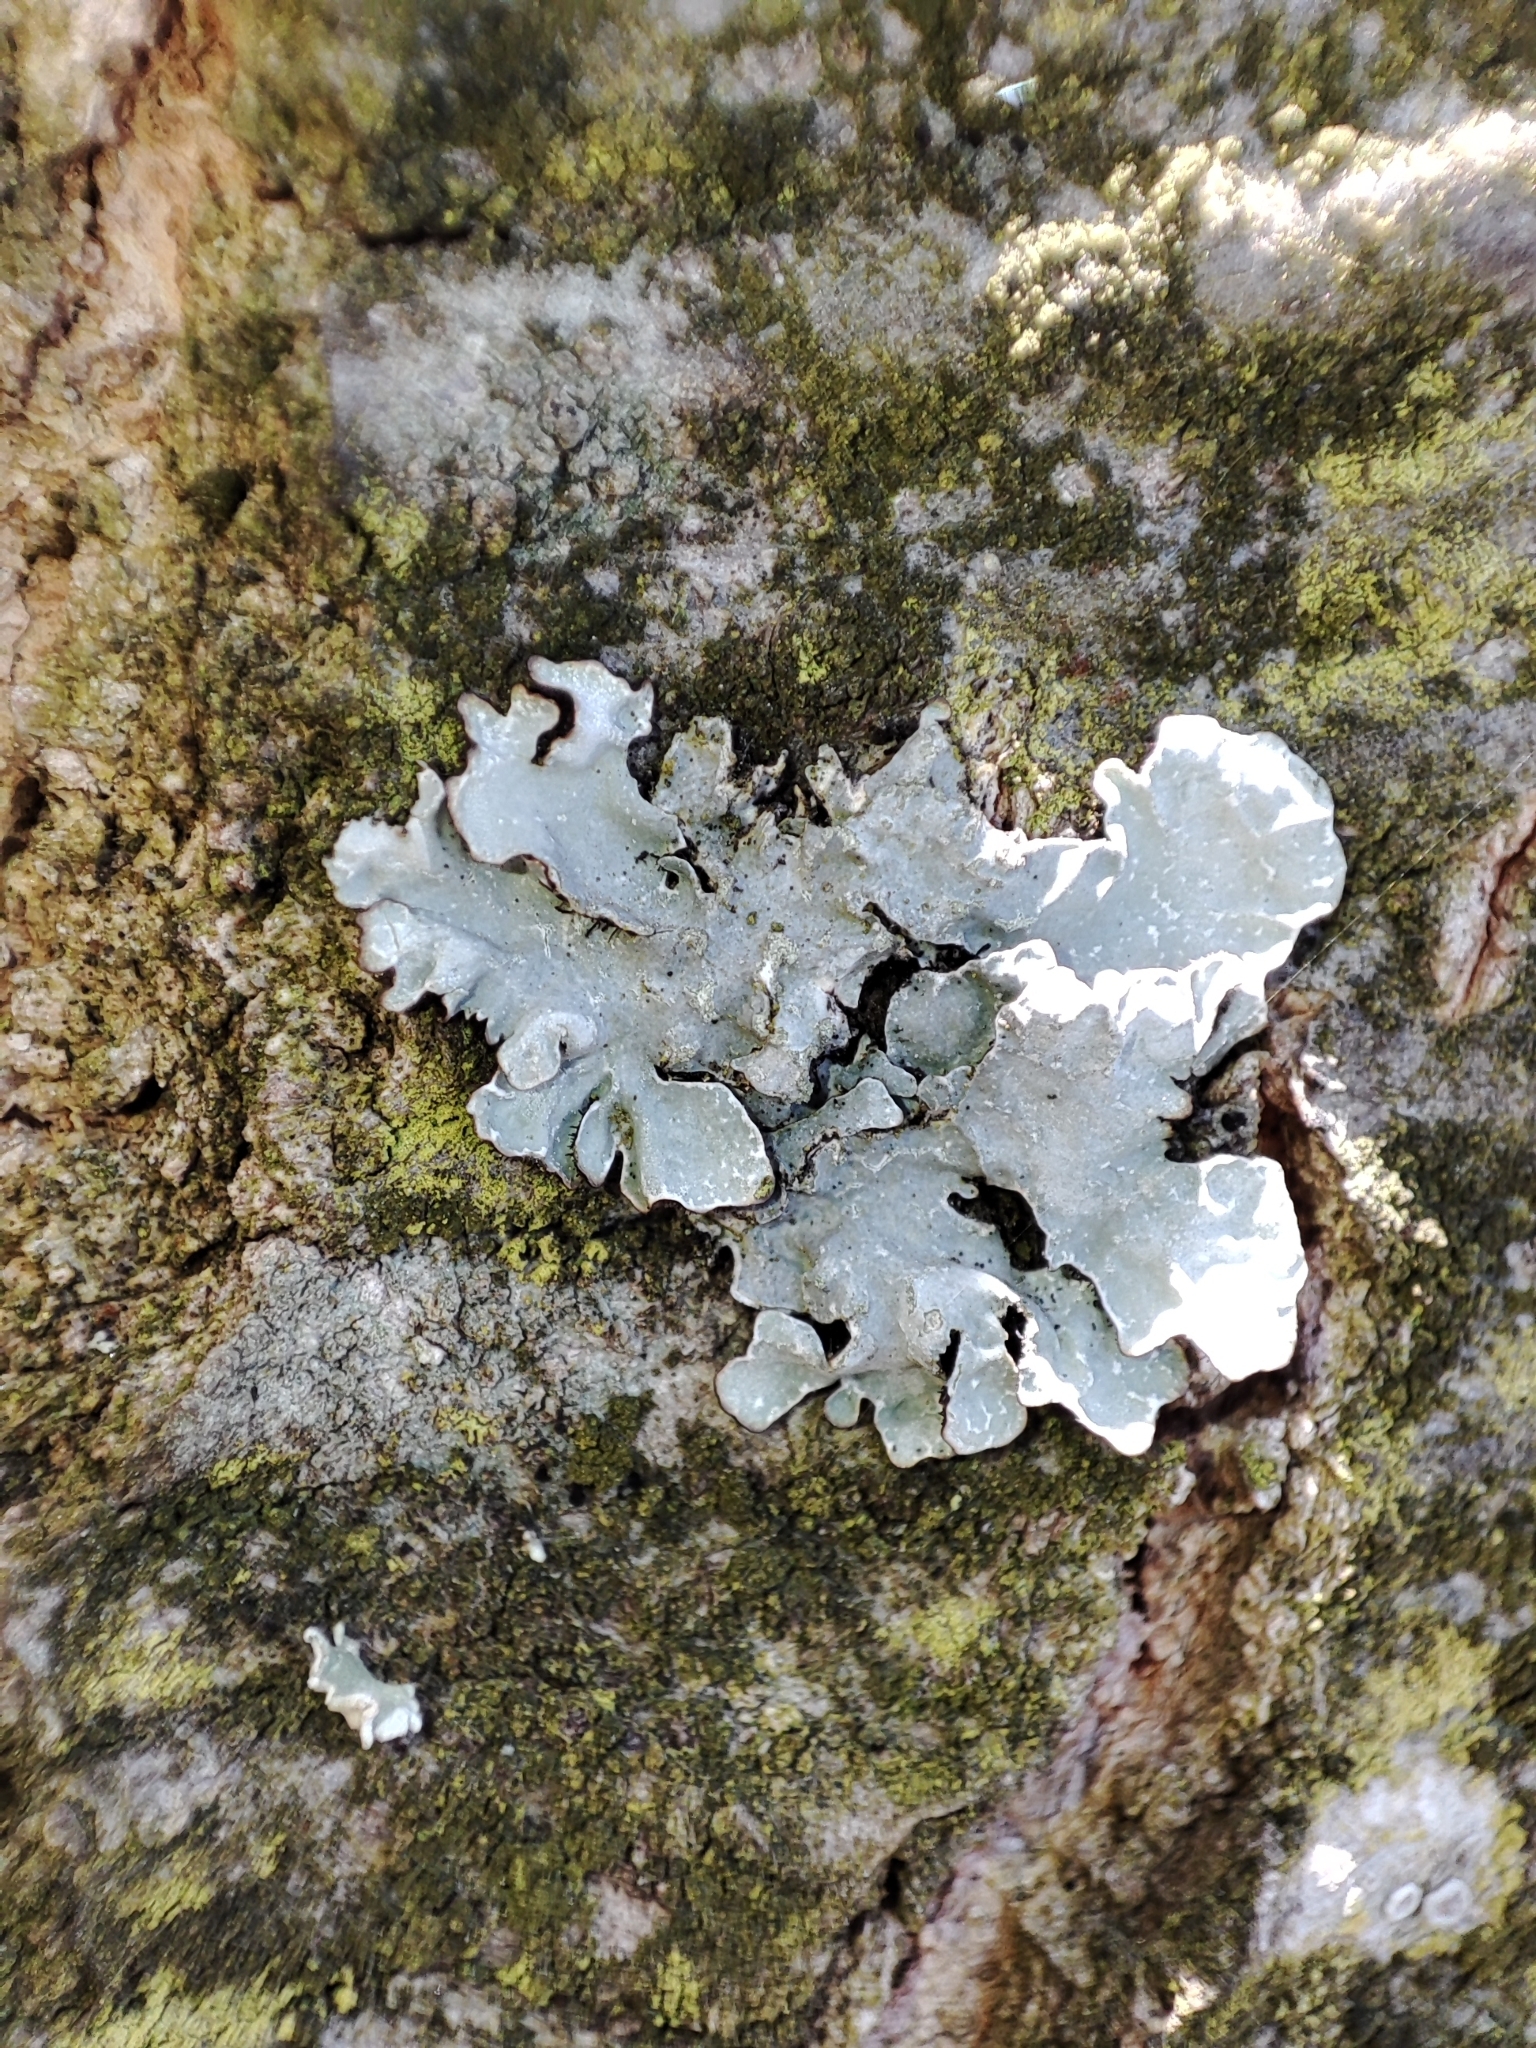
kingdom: Fungi
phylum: Ascomycota
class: Lecanoromycetes
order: Lecanorales
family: Parmeliaceae
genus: Parmelia
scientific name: Parmelia sulcata
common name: Netted shield lichen
